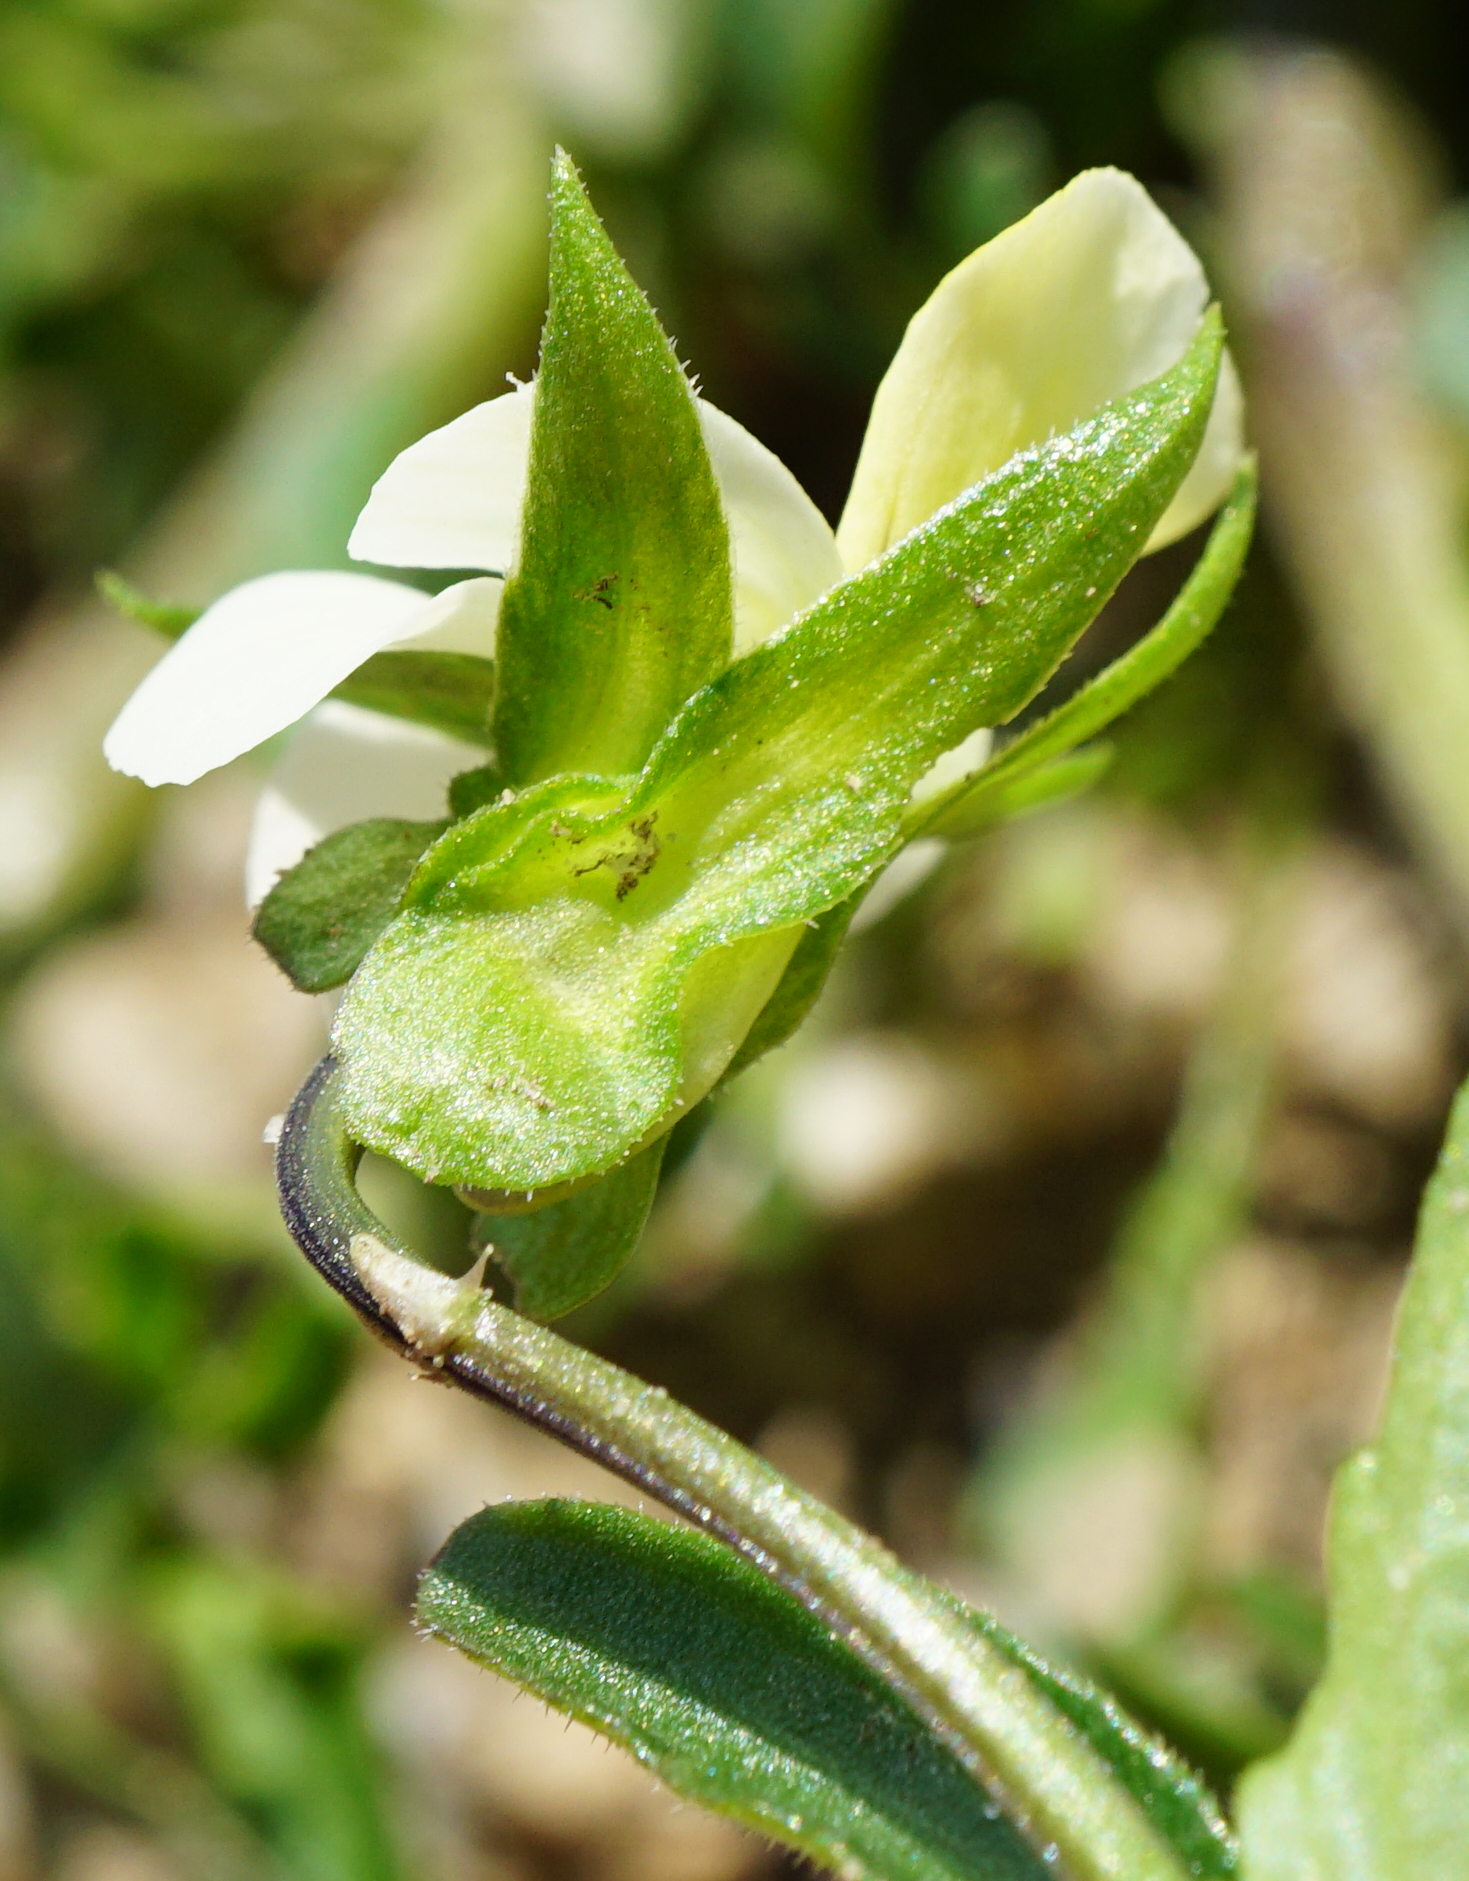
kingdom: Plantae
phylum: Tracheophyta
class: Magnoliopsida
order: Malpighiales
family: Violaceae
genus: Viola
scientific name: Viola arvensis
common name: Field pansy
